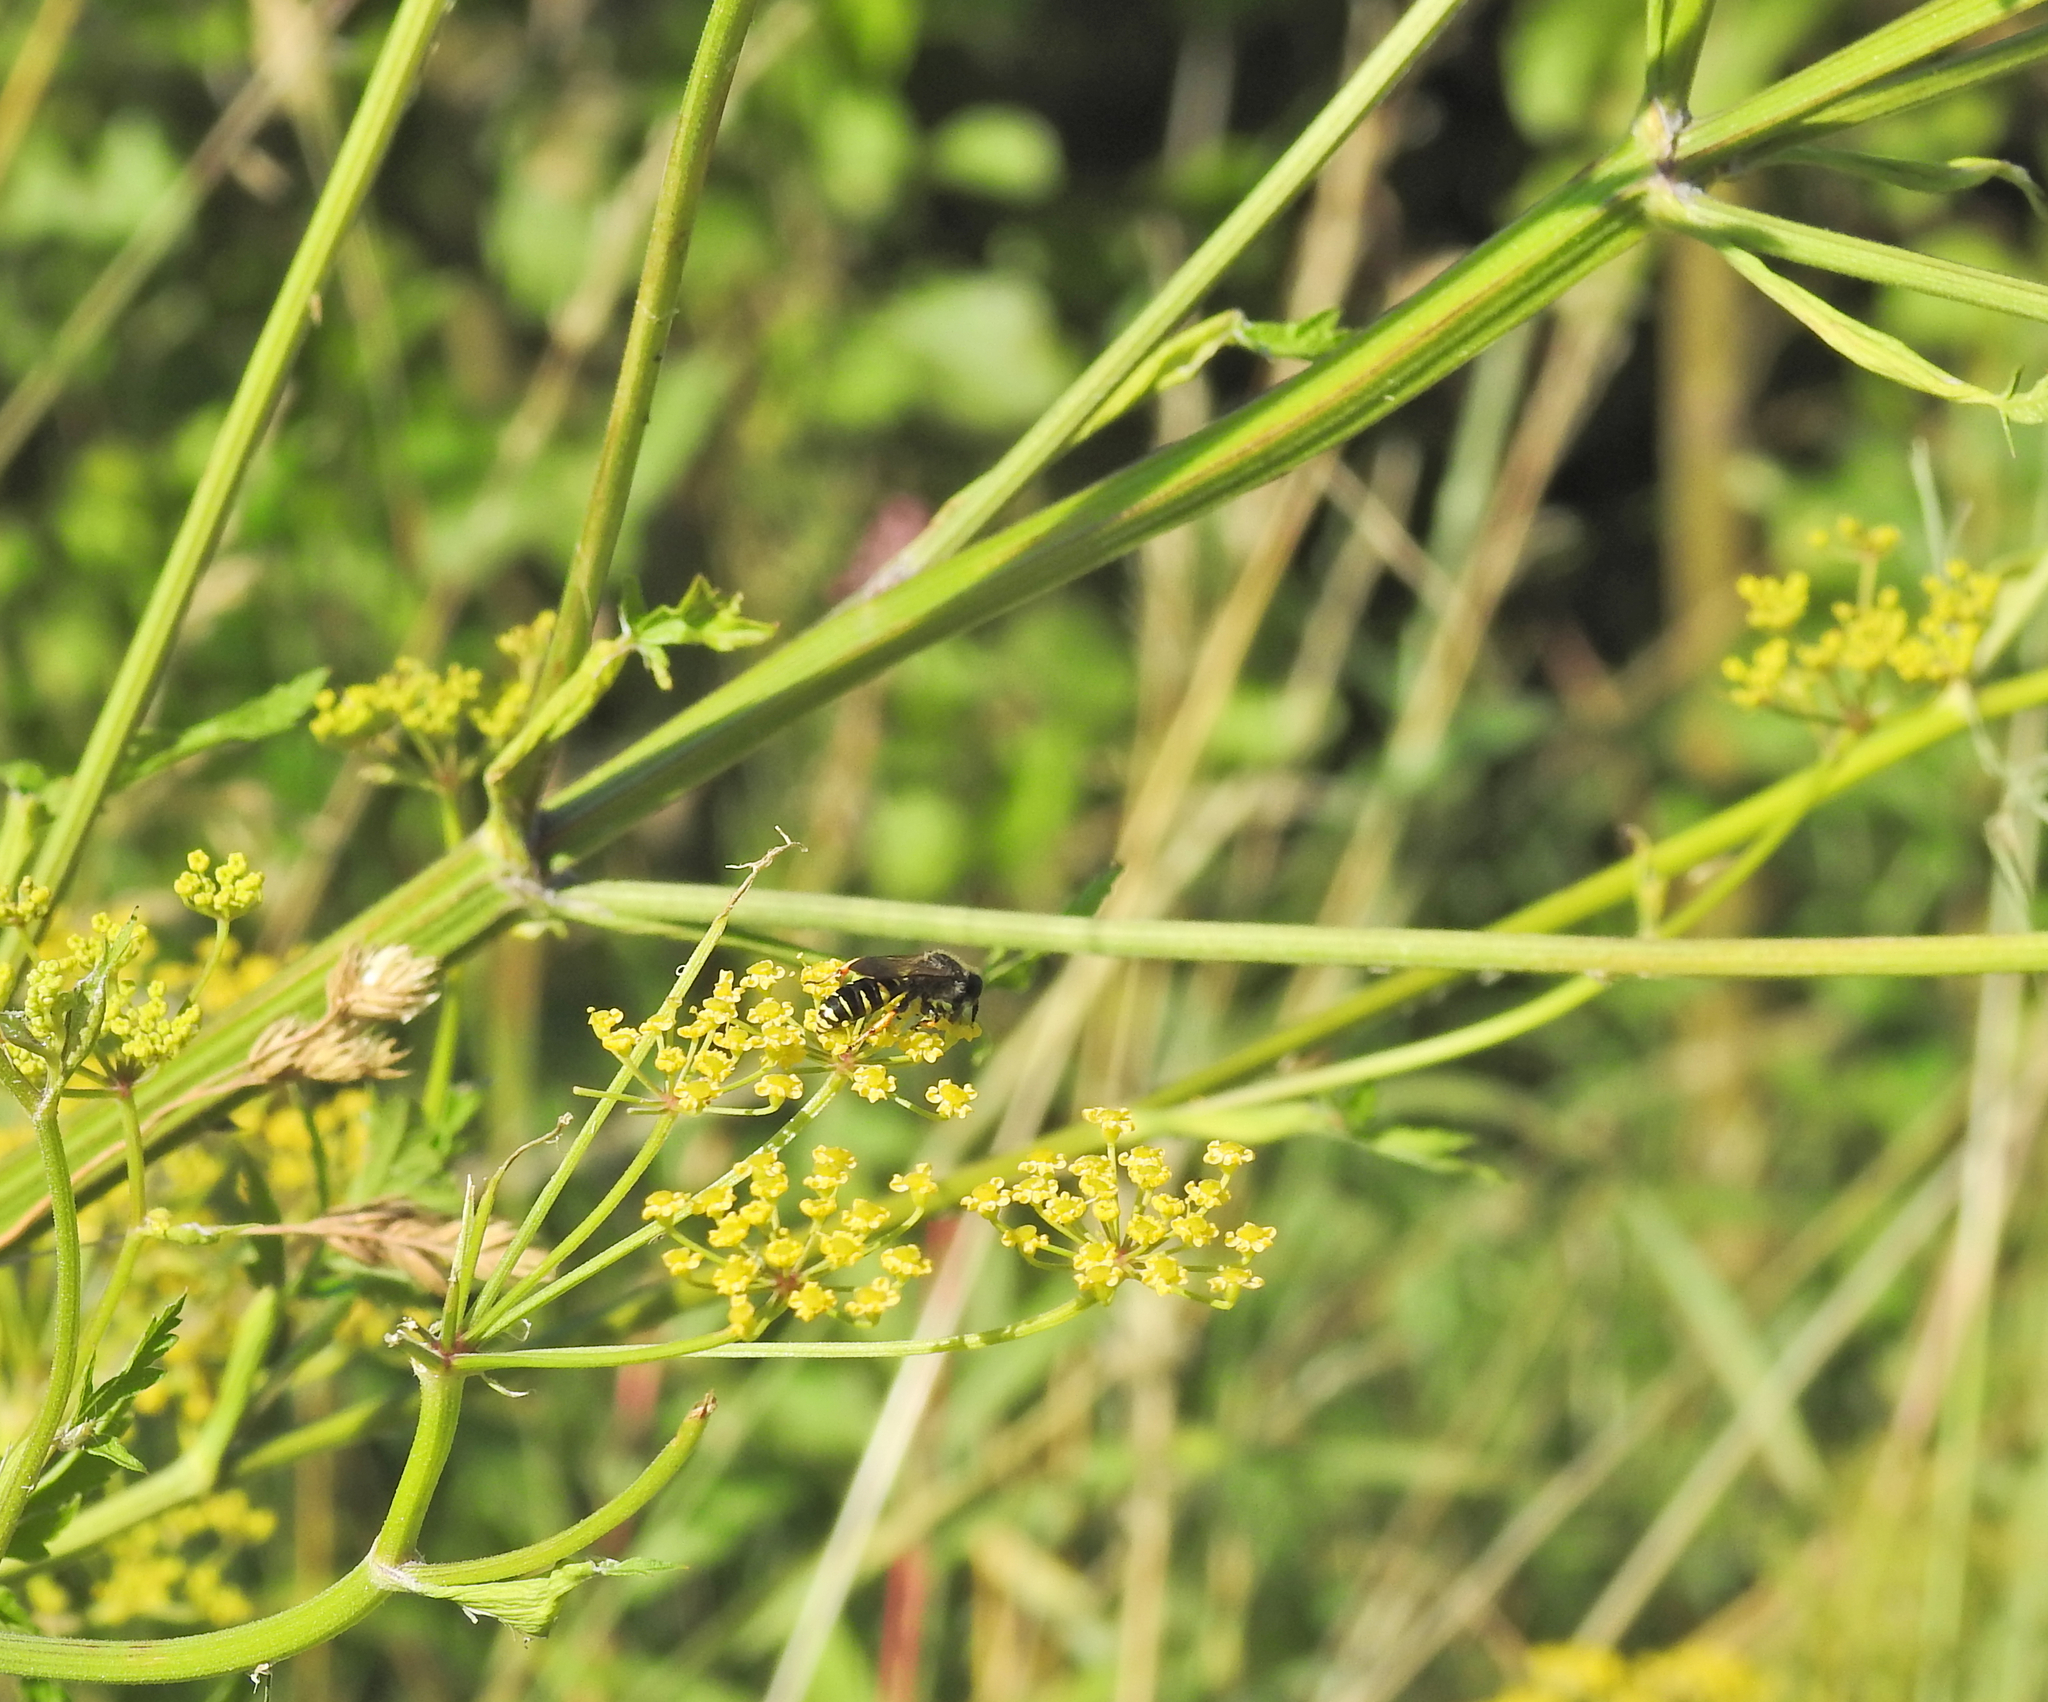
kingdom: Plantae
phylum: Tracheophyta
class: Magnoliopsida
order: Apiales
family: Apiaceae
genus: Pastinaca
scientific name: Pastinaca sativa
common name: Wild parsnip
